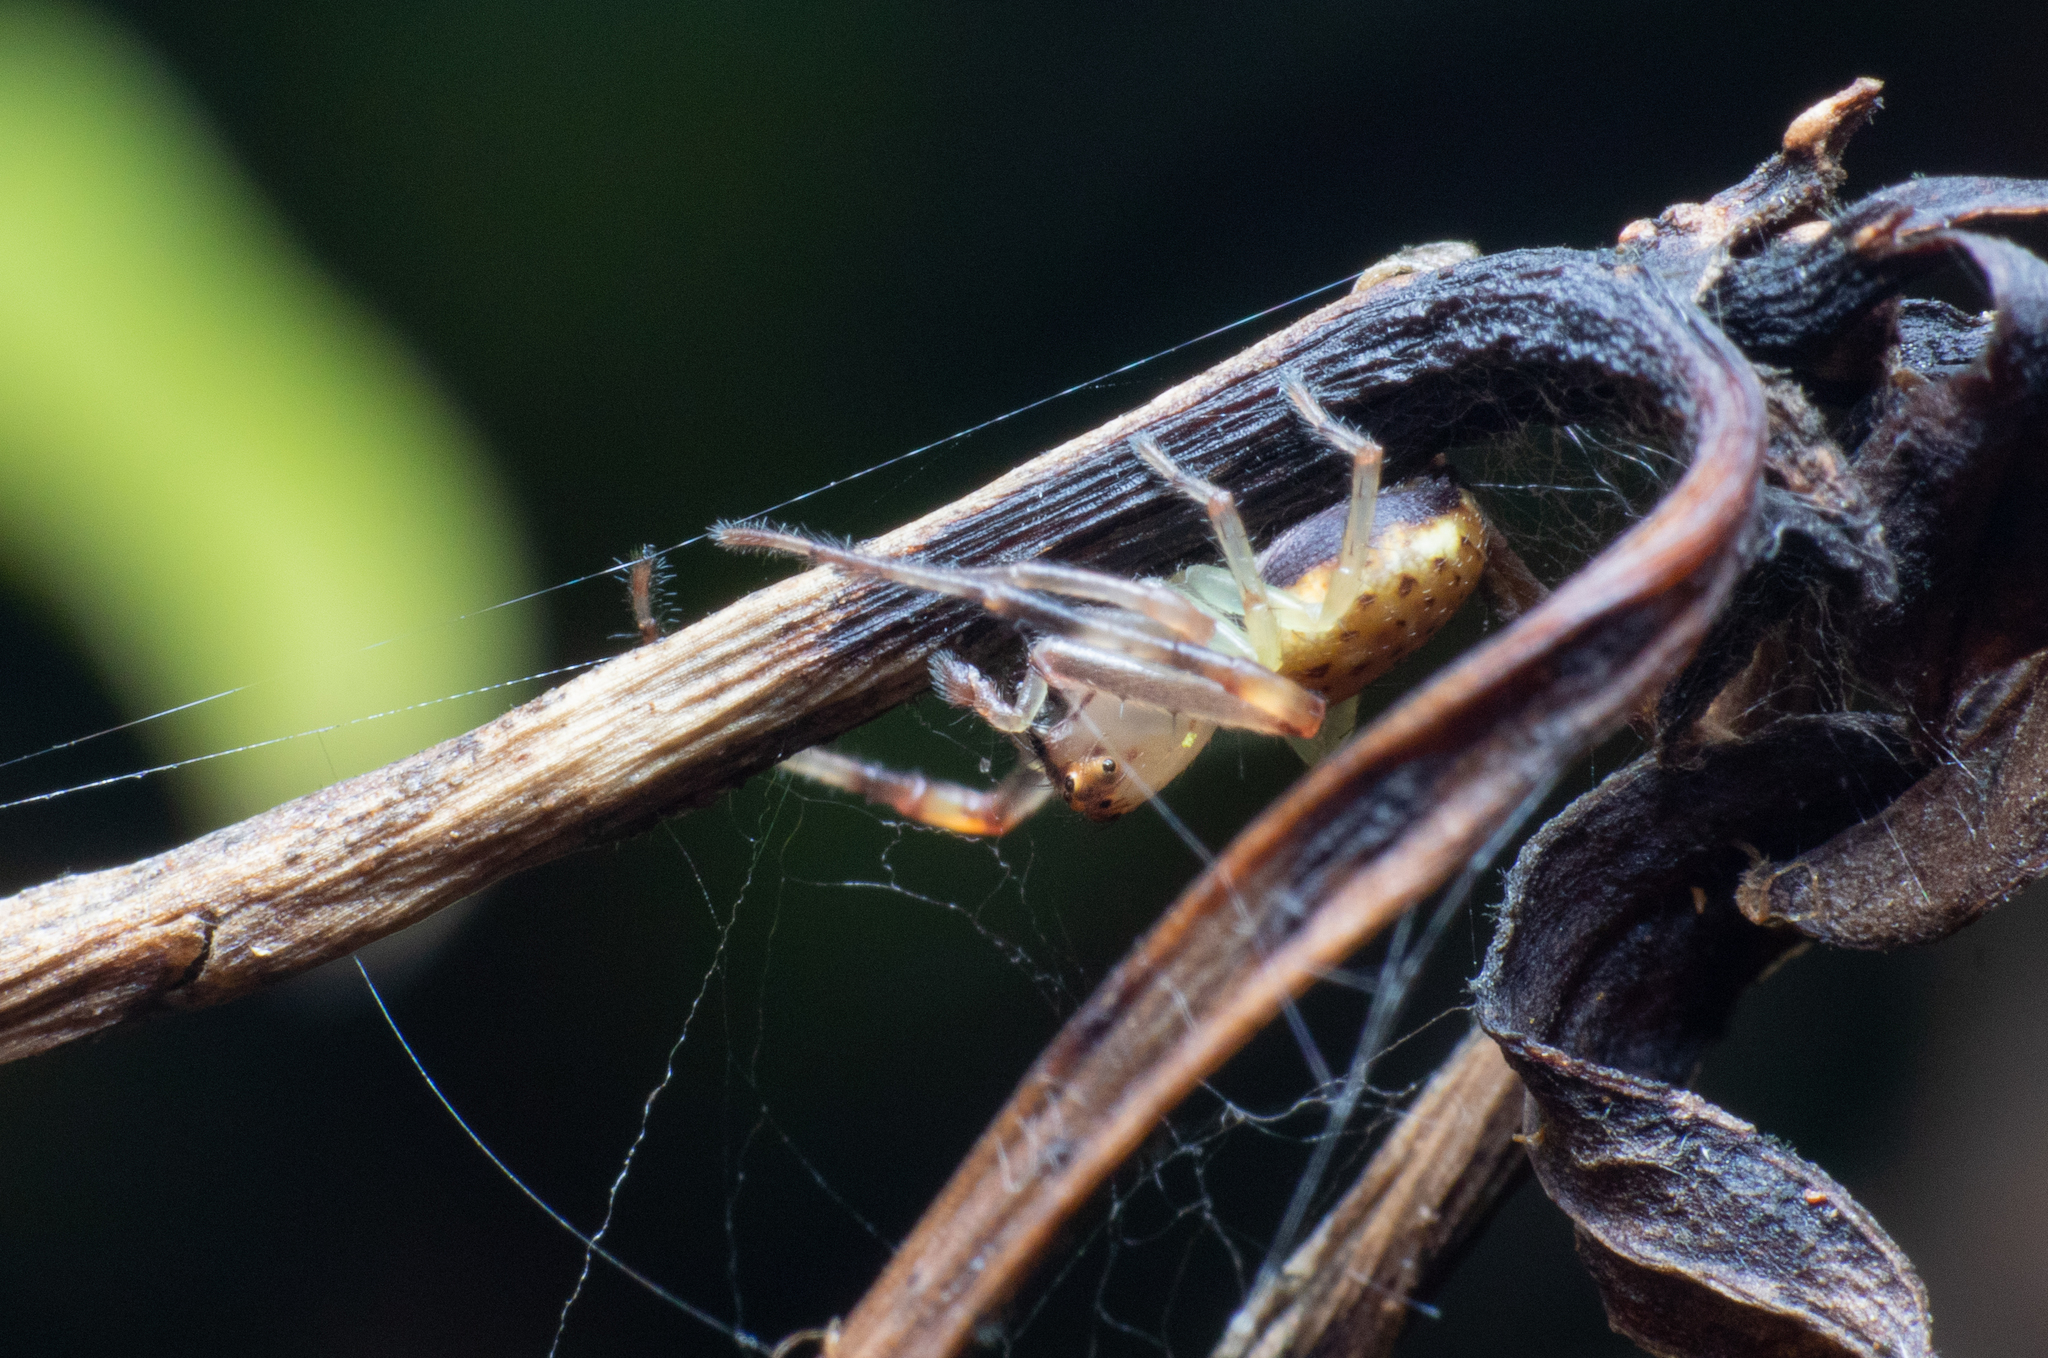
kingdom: Animalia
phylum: Arthropoda
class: Arachnida
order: Araneae
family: Clubionidae
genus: Clubiona
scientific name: Clubiona peculiaris
